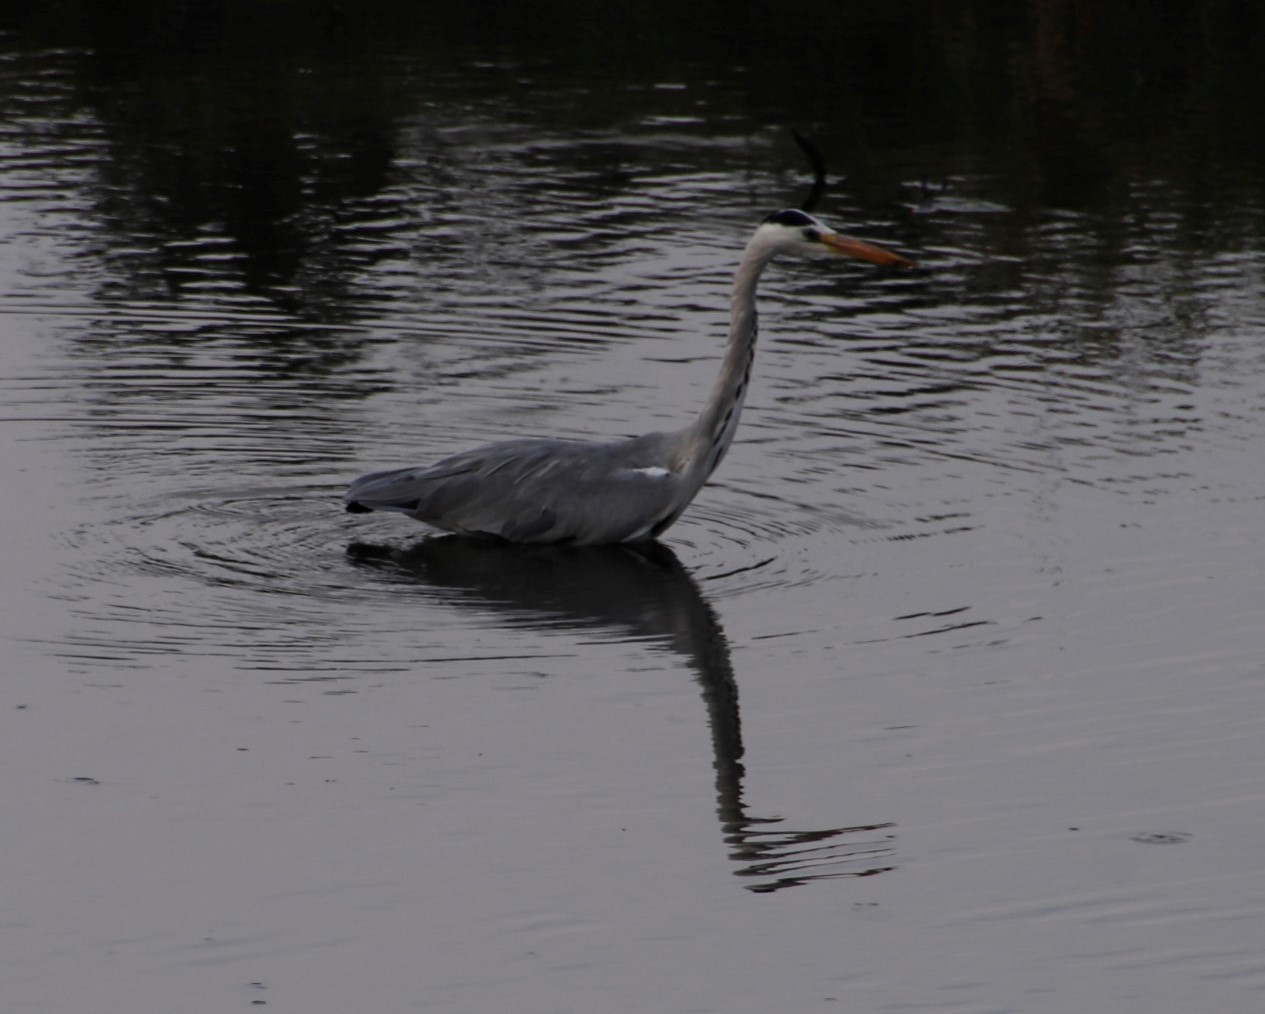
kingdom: Animalia
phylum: Chordata
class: Aves
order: Pelecaniformes
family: Ardeidae
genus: Ardea
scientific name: Ardea cinerea
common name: Grey heron
